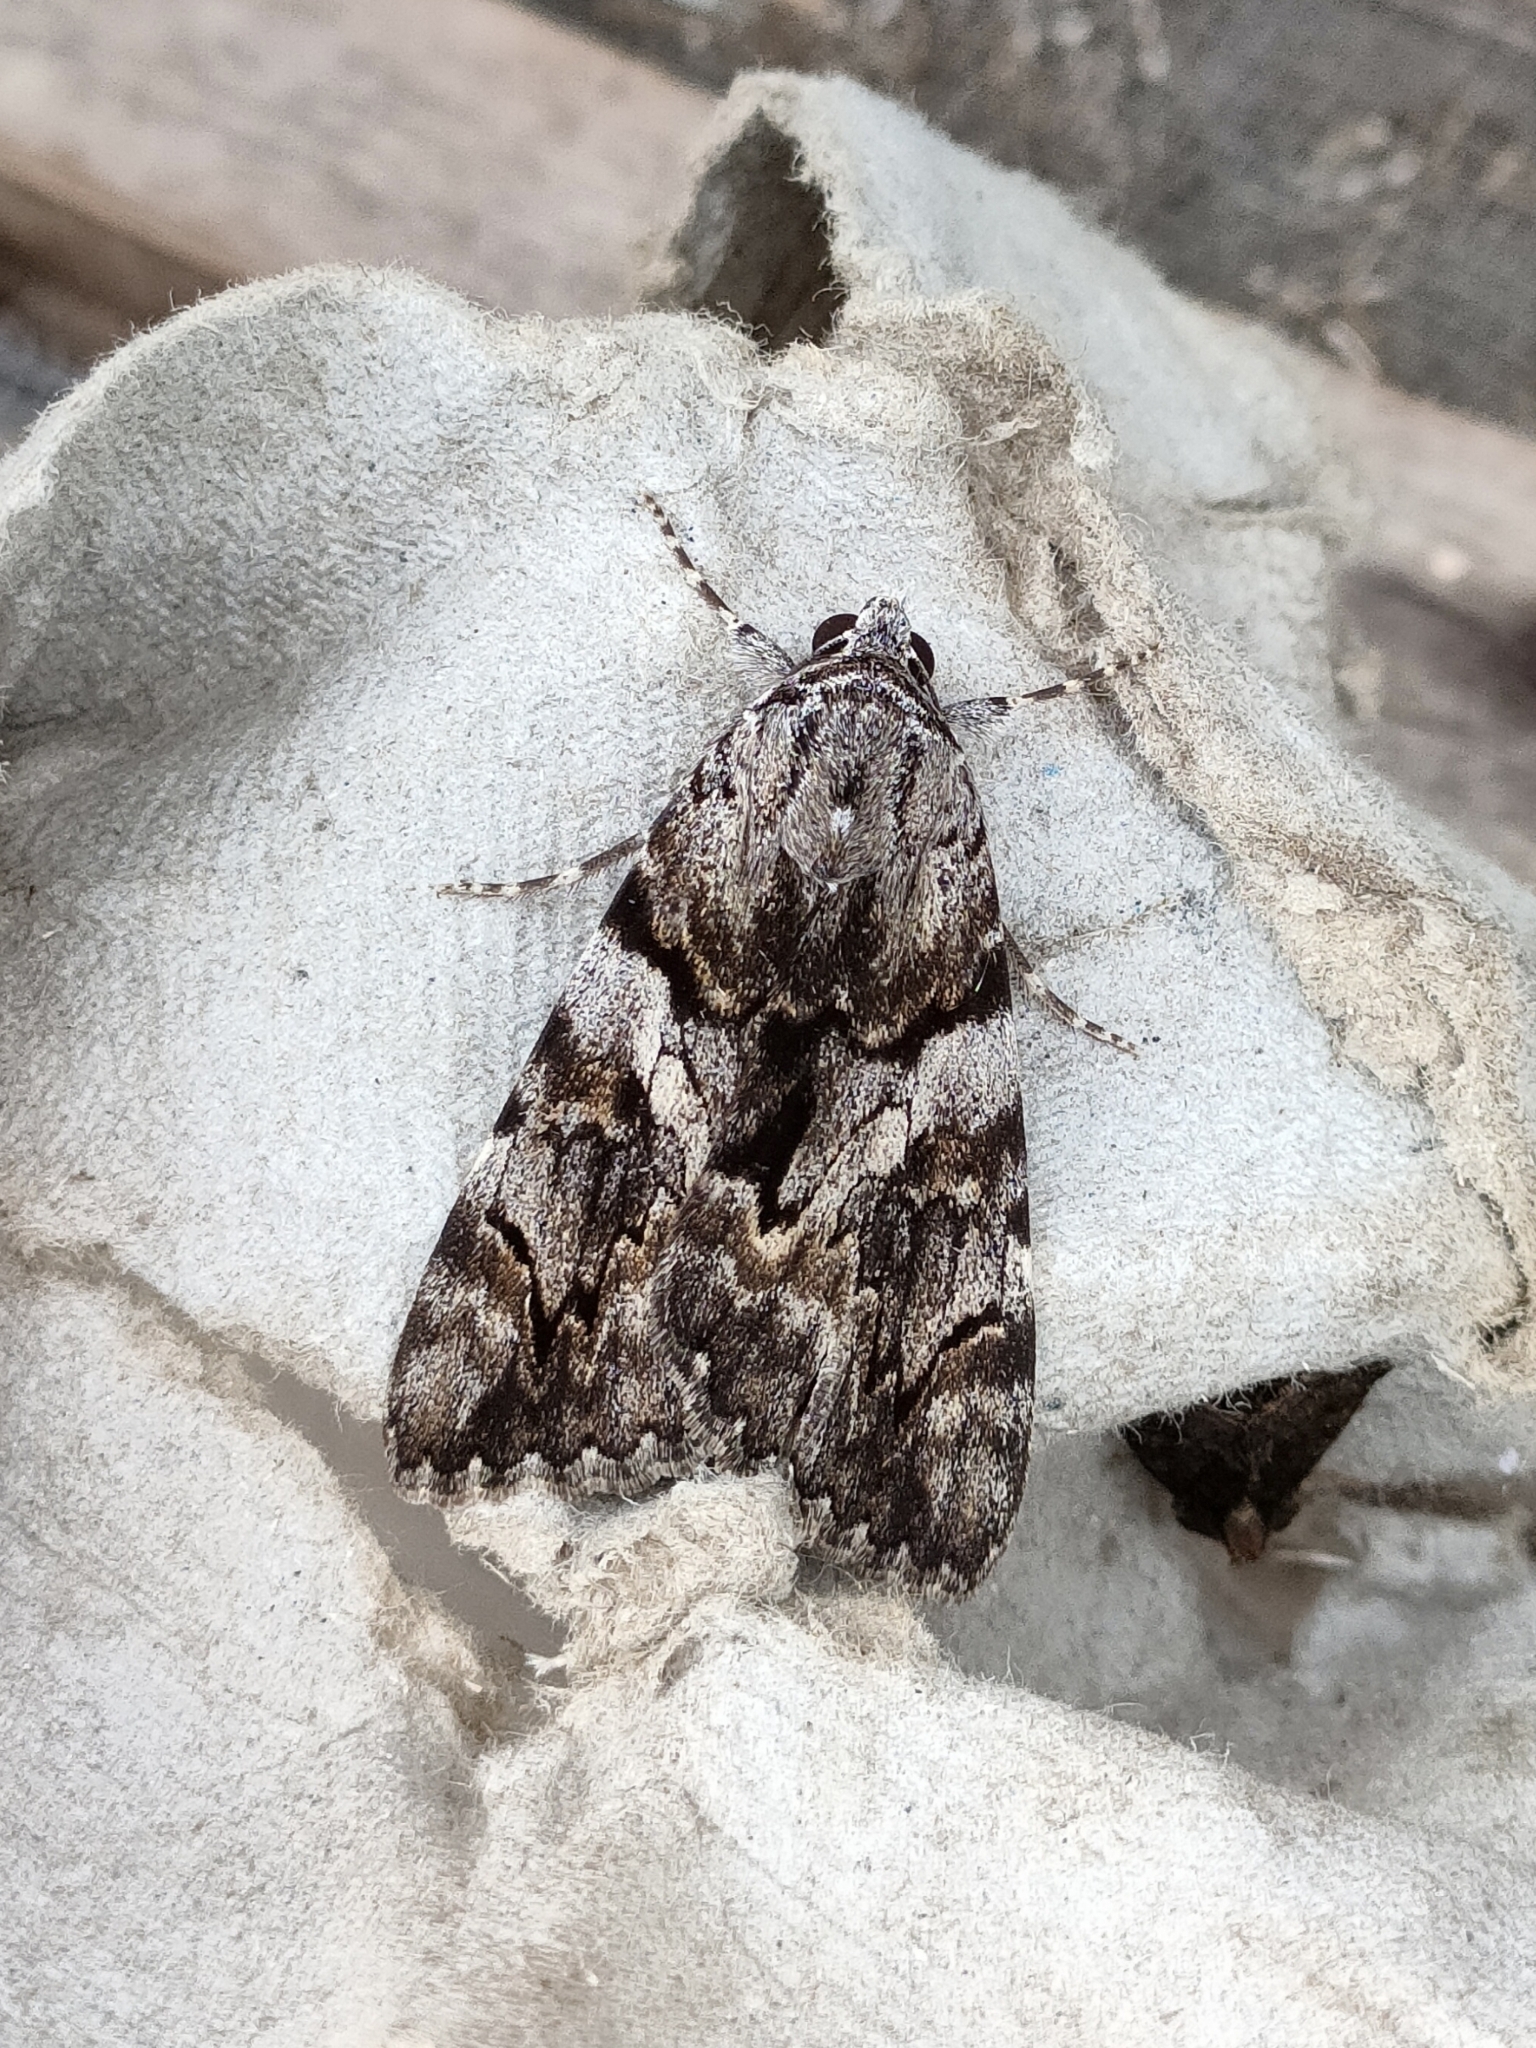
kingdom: Animalia
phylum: Arthropoda
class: Insecta
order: Lepidoptera
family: Erebidae
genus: Catocala
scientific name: Catocala conversa
